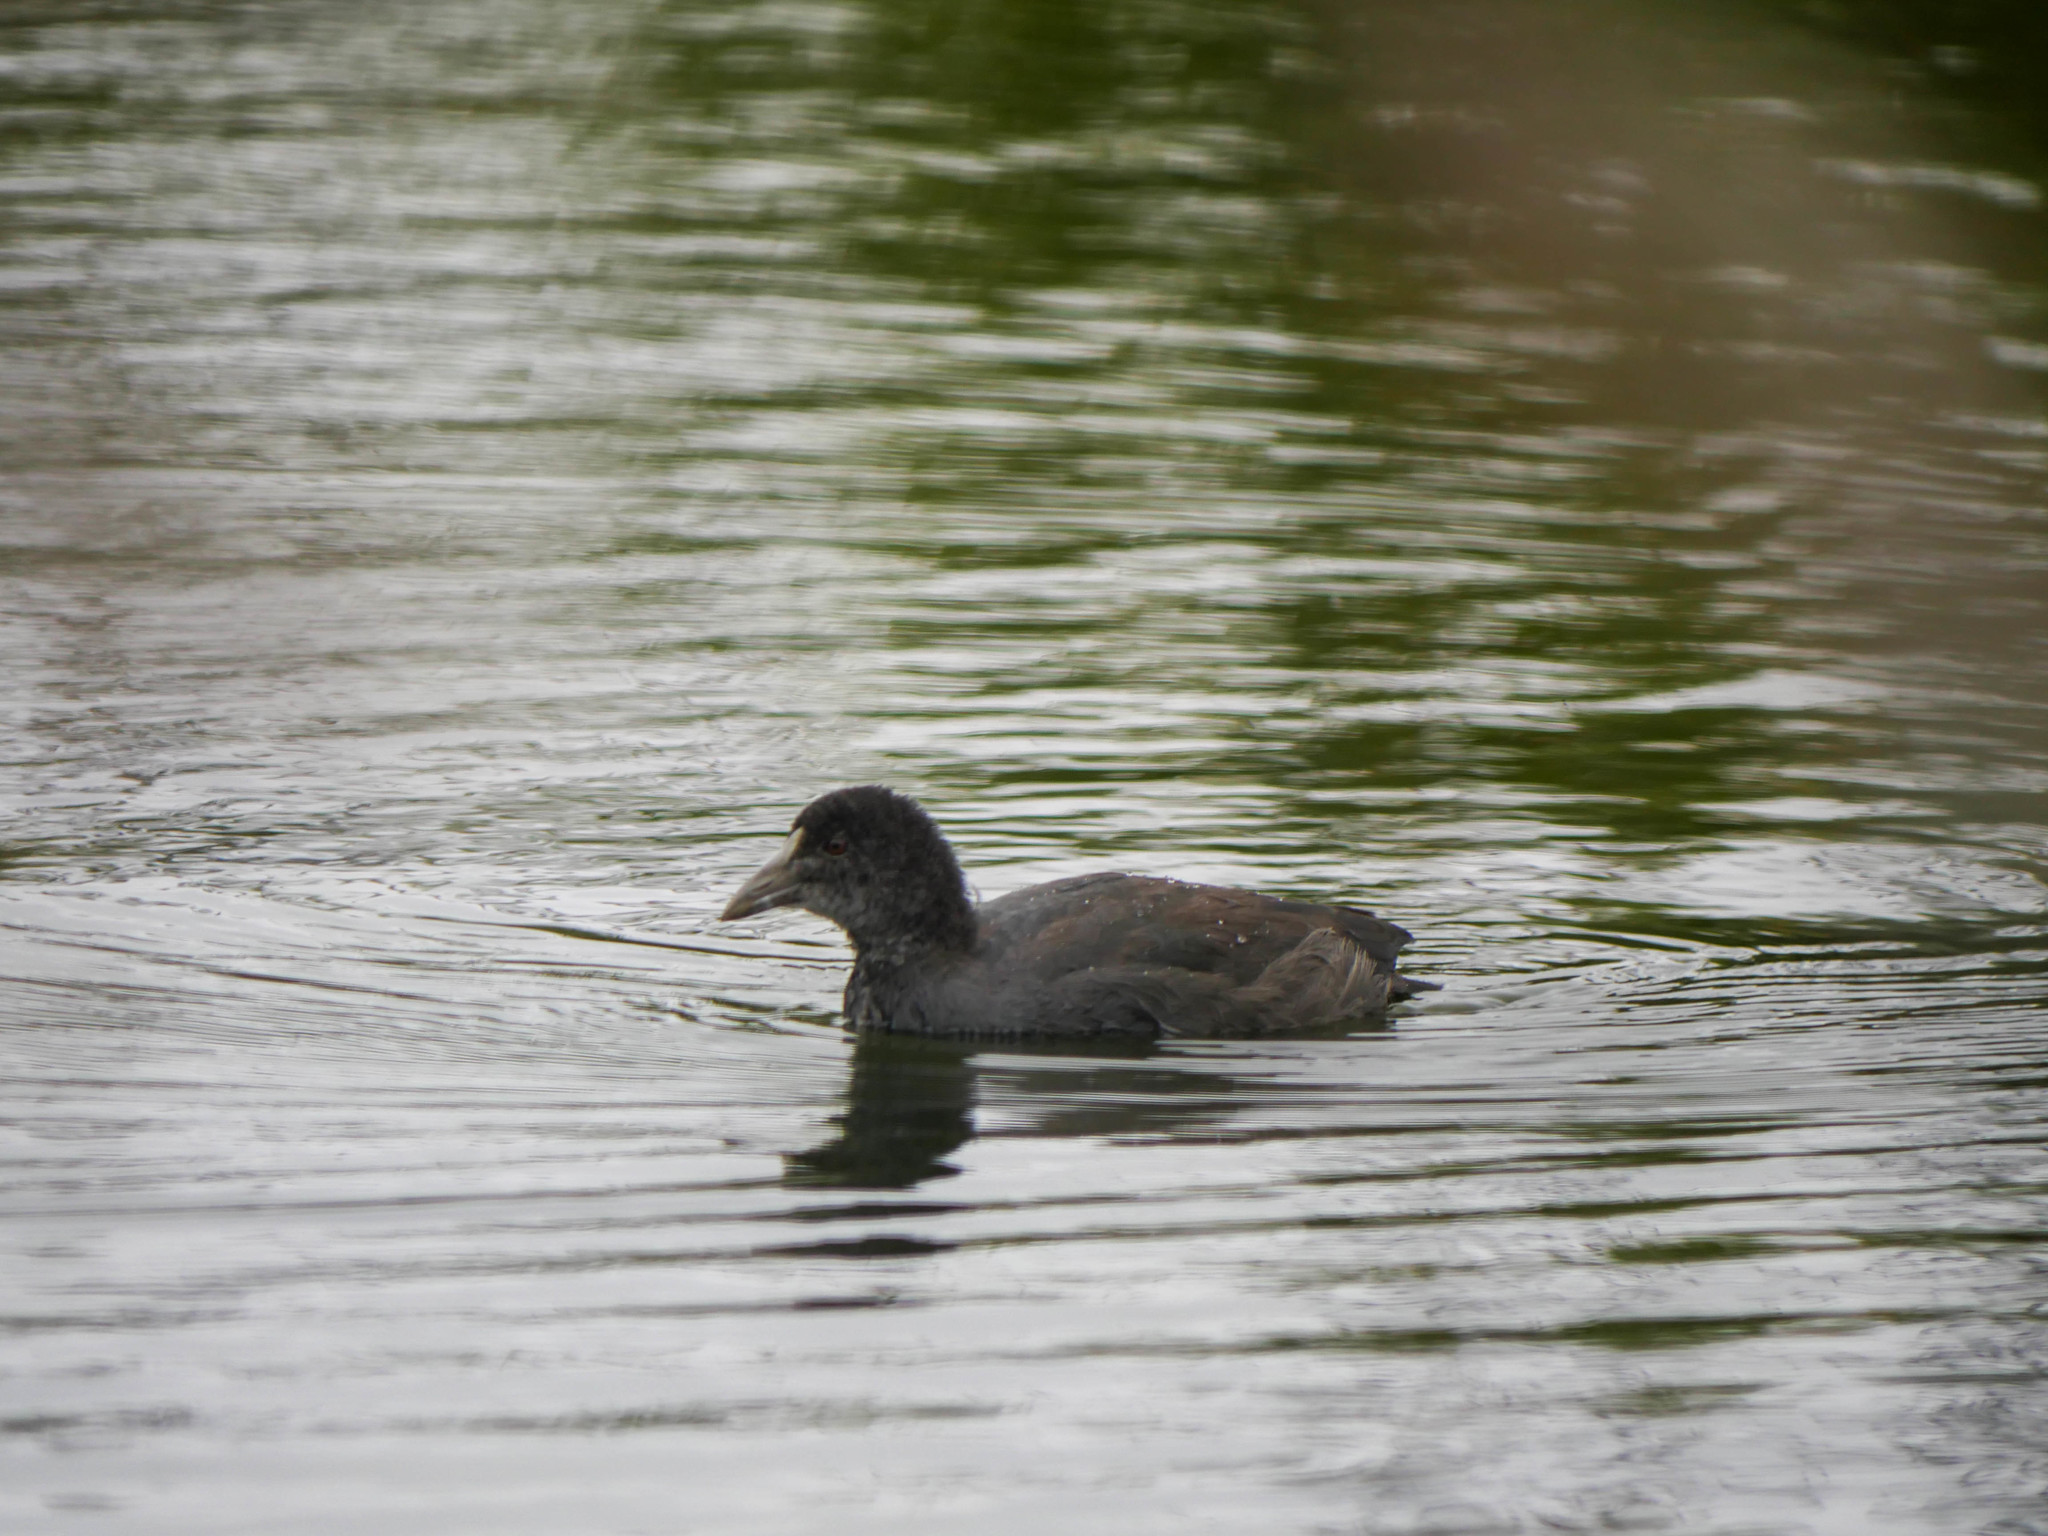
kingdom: Animalia
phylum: Chordata
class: Aves
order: Gruiformes
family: Rallidae
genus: Fulica
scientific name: Fulica atra
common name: Eurasian coot
